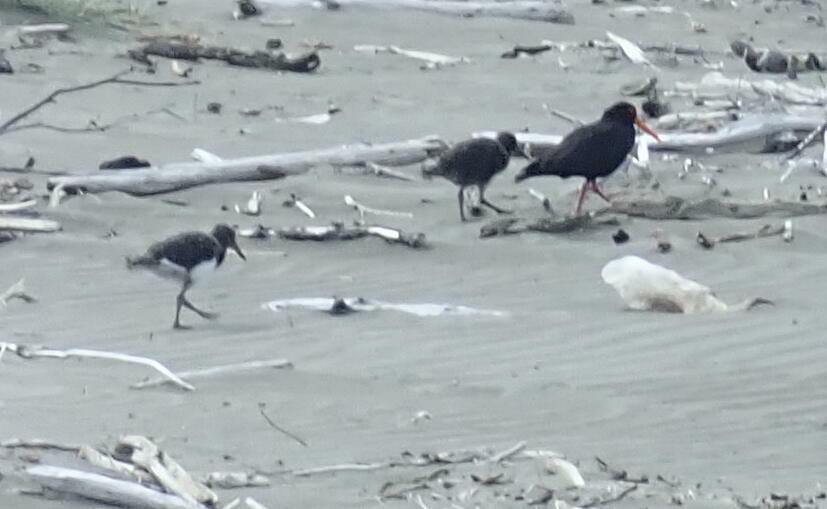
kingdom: Animalia
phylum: Chordata
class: Aves
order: Charadriiformes
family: Haematopodidae
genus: Haematopus
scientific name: Haematopus unicolor
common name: Variable oystercatcher
